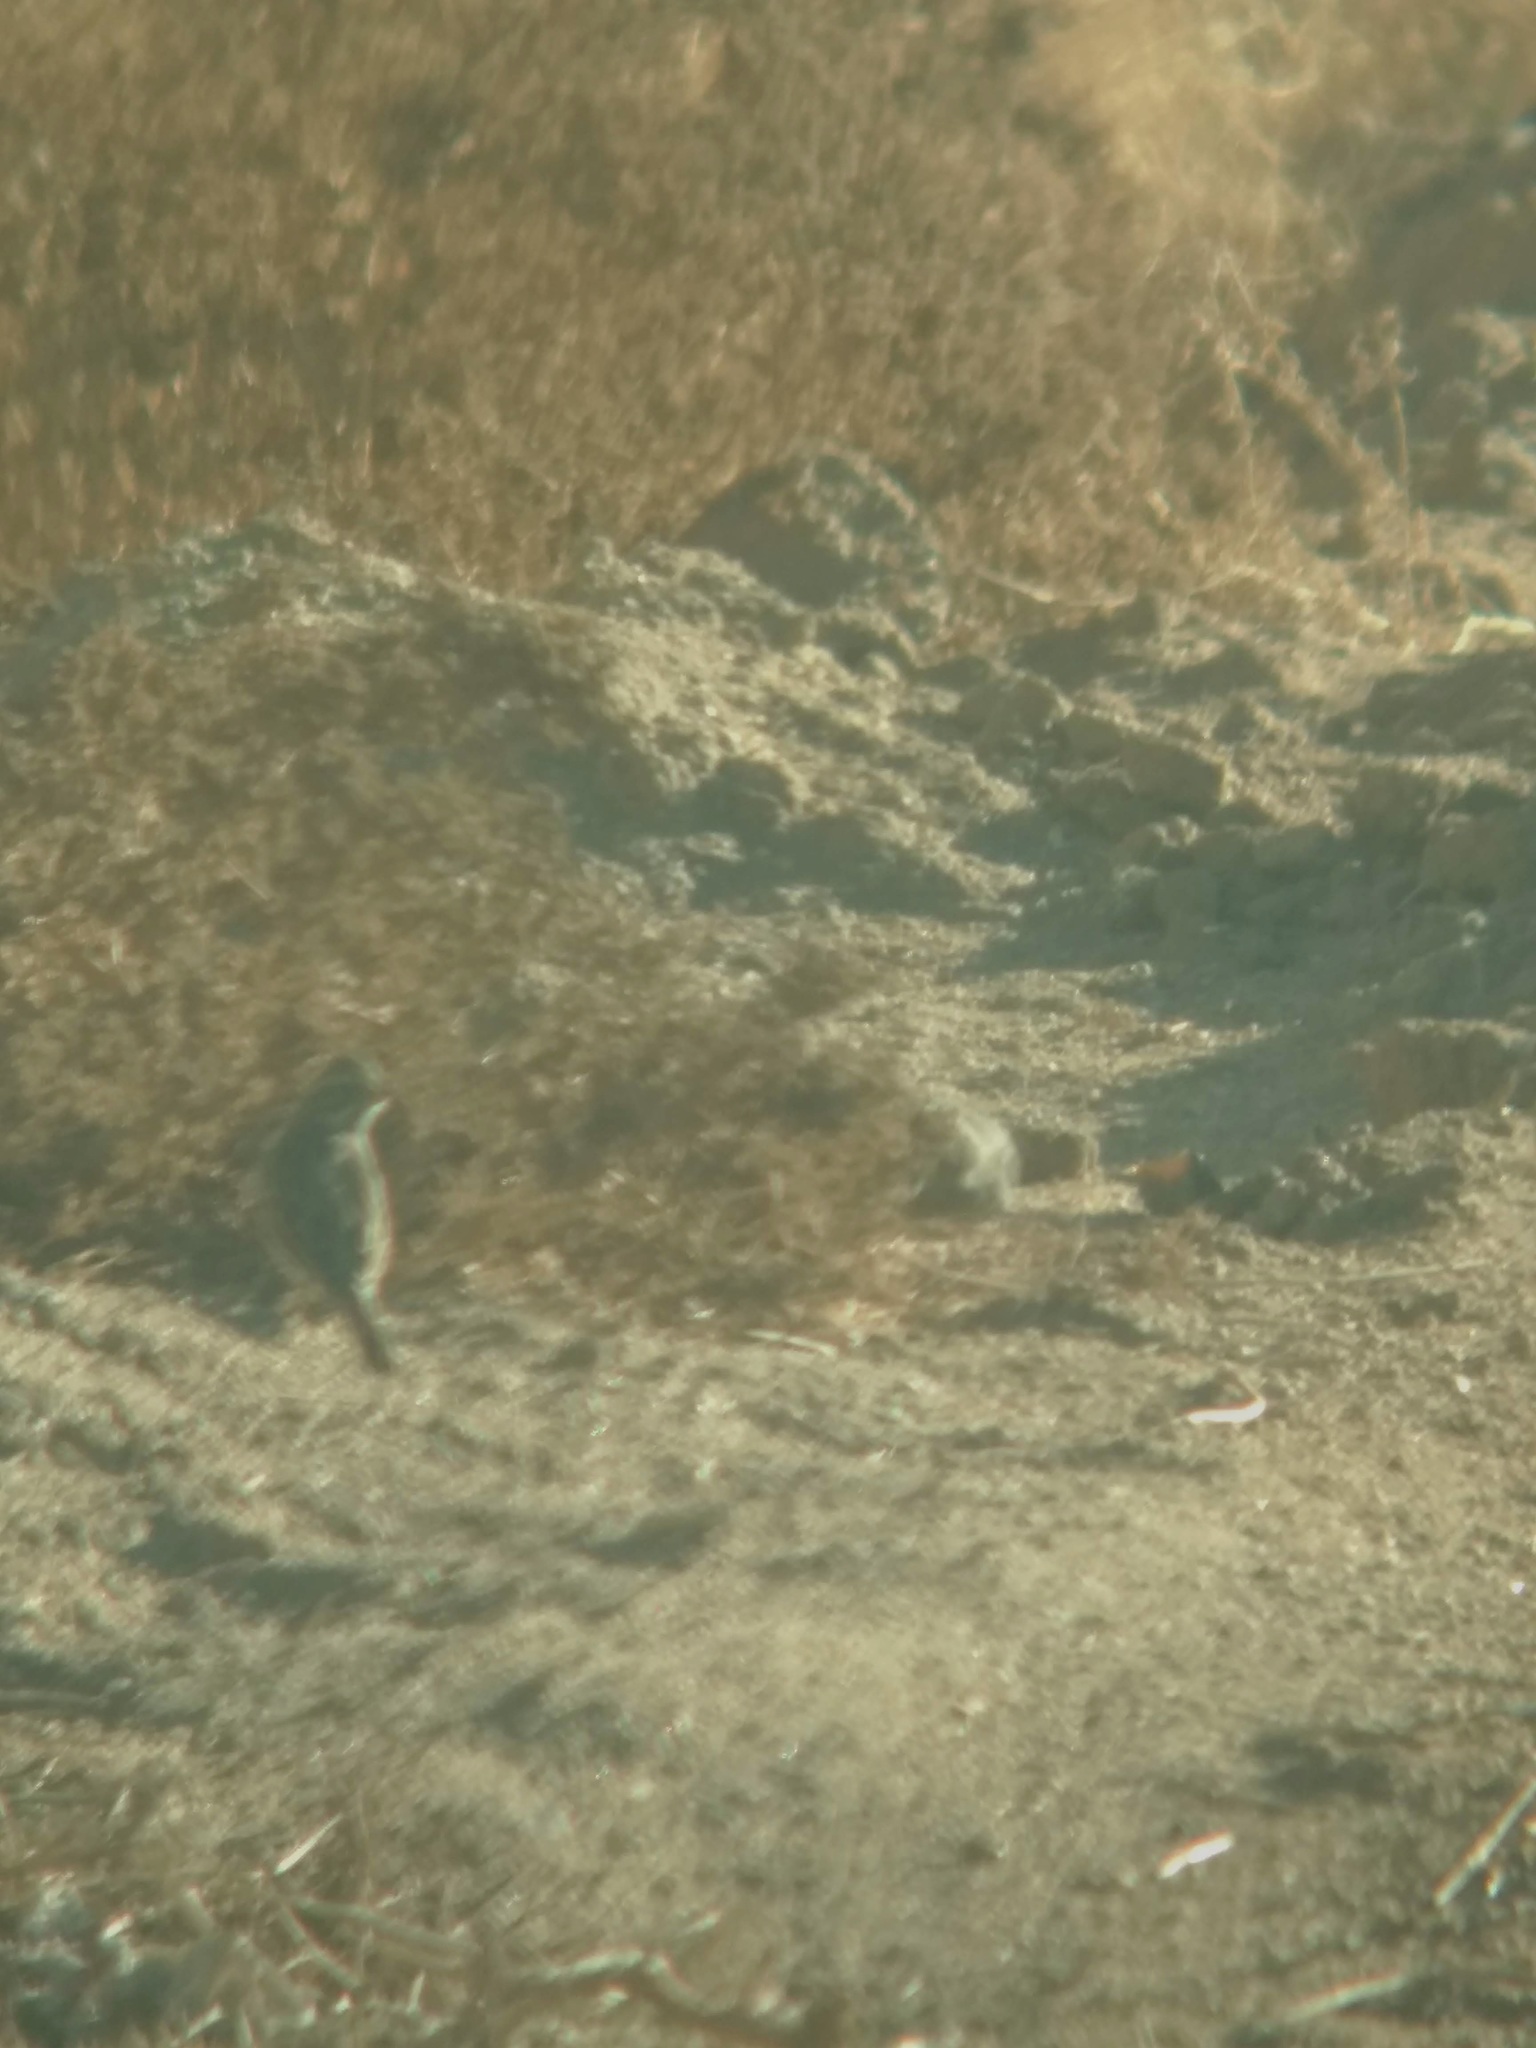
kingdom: Animalia
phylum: Chordata
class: Aves
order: Passeriformes
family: Passerellidae
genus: Passerculus
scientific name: Passerculus sandwichensis
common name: Savannah sparrow
